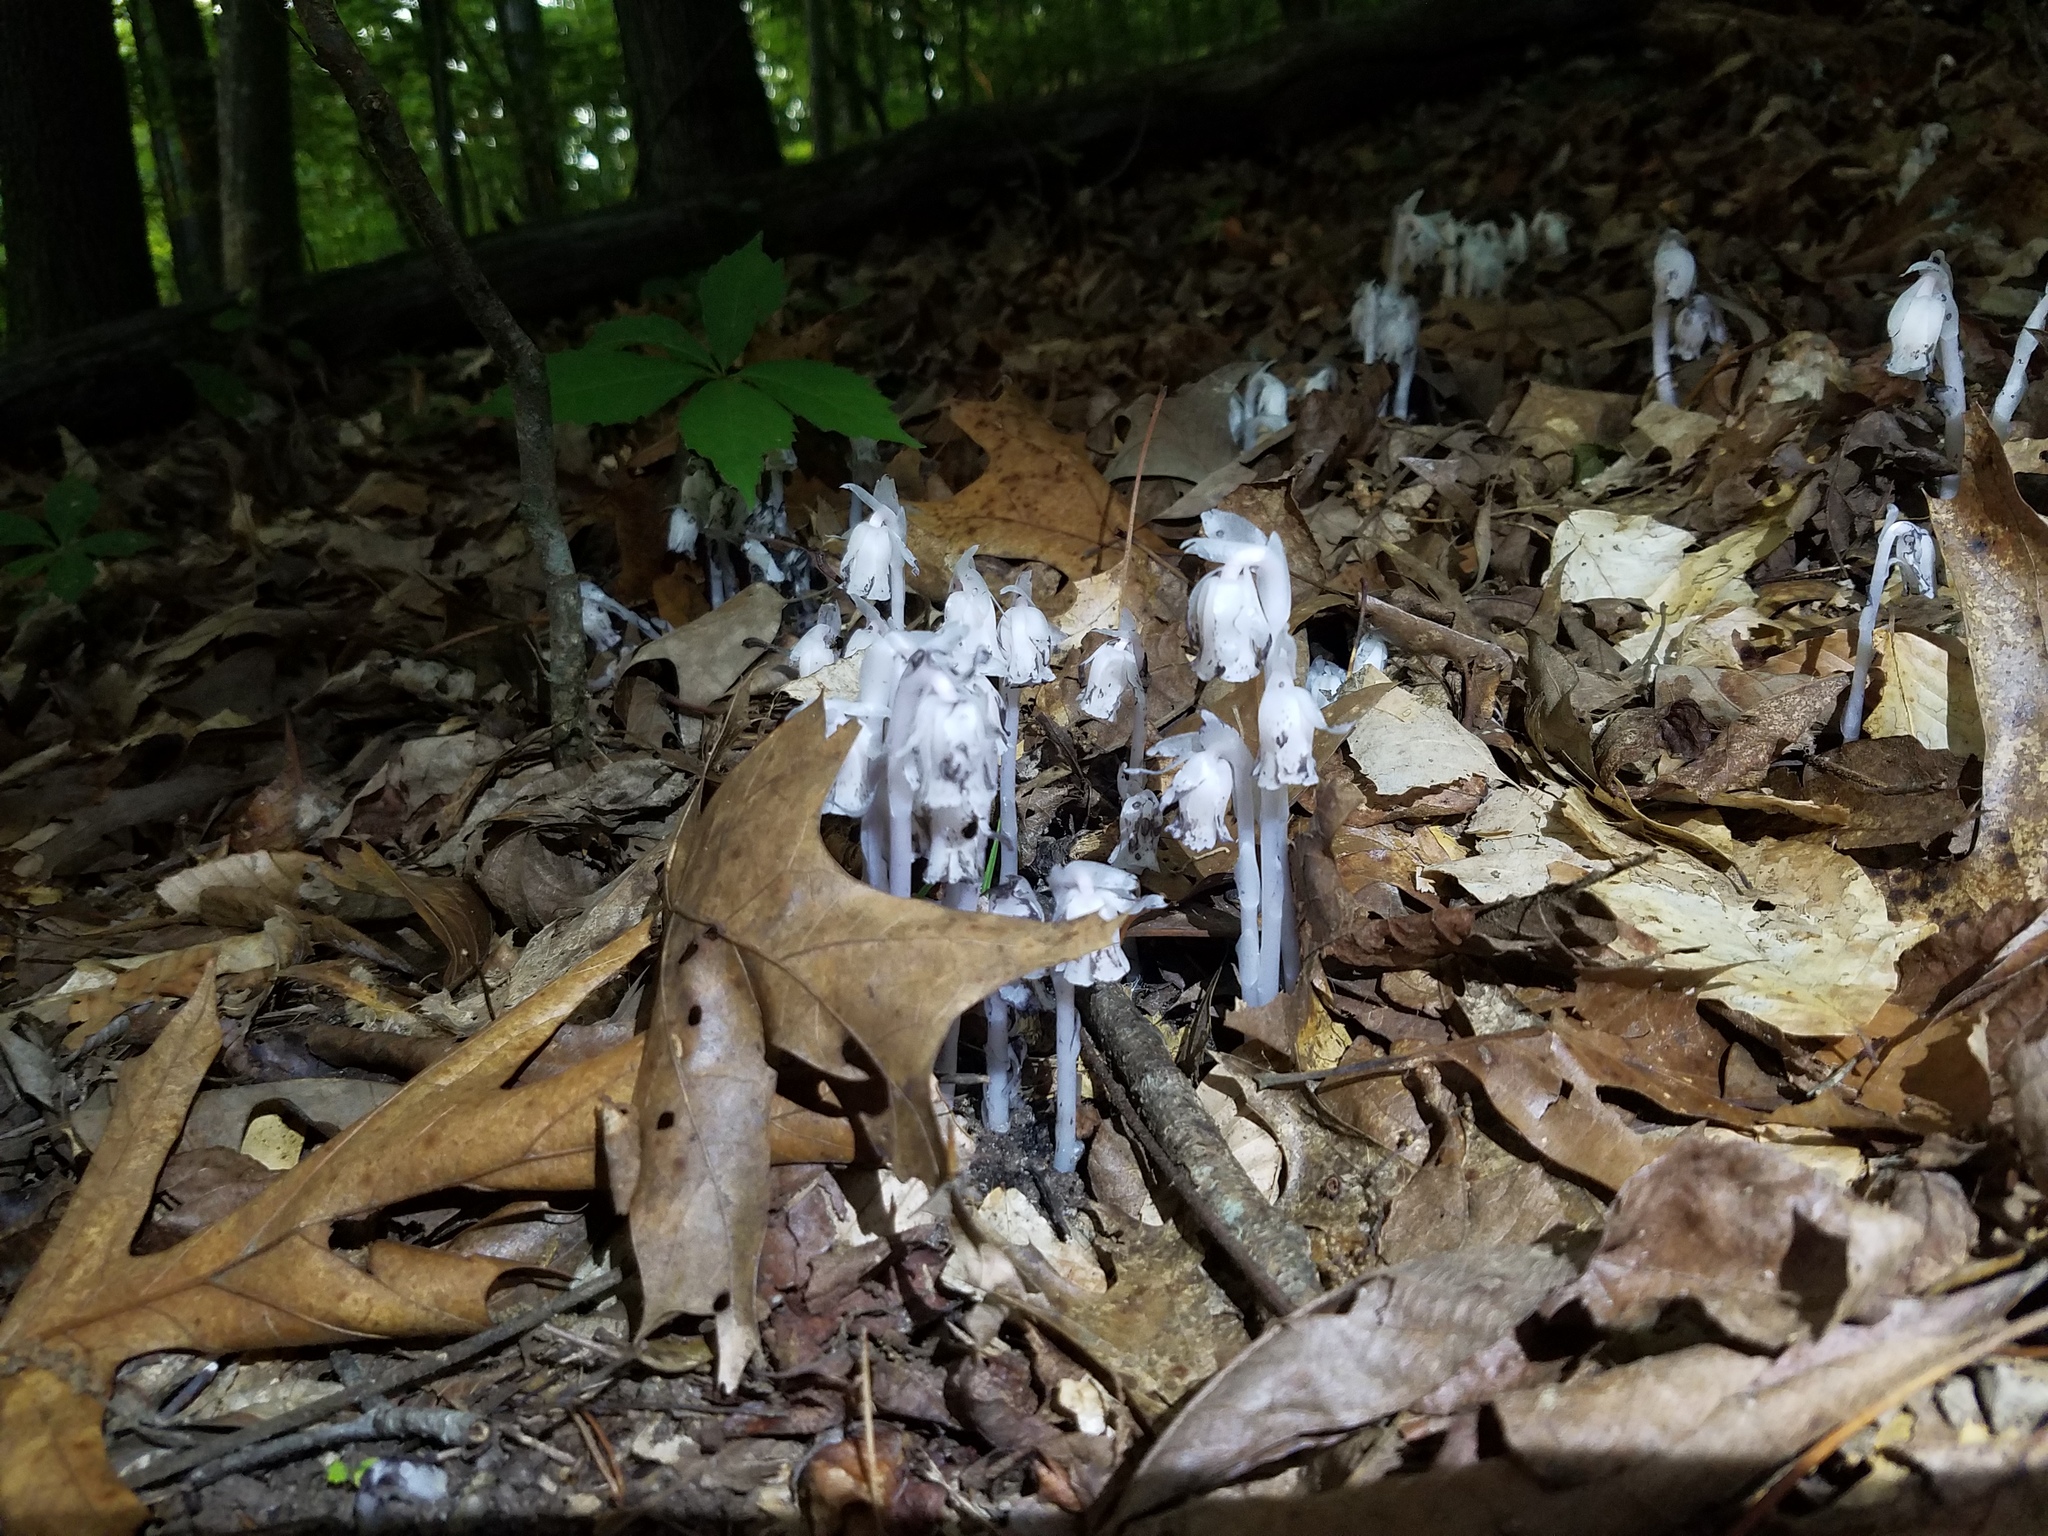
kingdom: Plantae
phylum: Tracheophyta
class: Magnoliopsida
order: Ericales
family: Ericaceae
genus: Monotropa
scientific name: Monotropa uniflora
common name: Convulsion root
